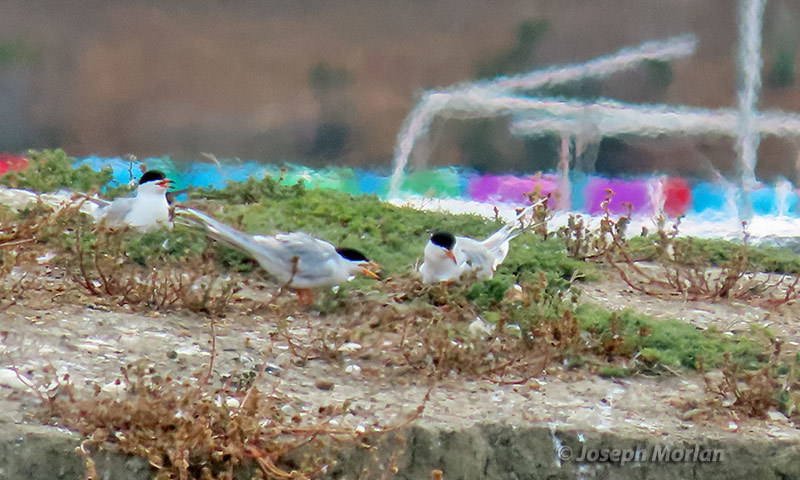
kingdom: Animalia
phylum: Chordata
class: Aves
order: Charadriiformes
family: Laridae
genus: Sterna
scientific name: Sterna forsteri
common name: Forster's tern
